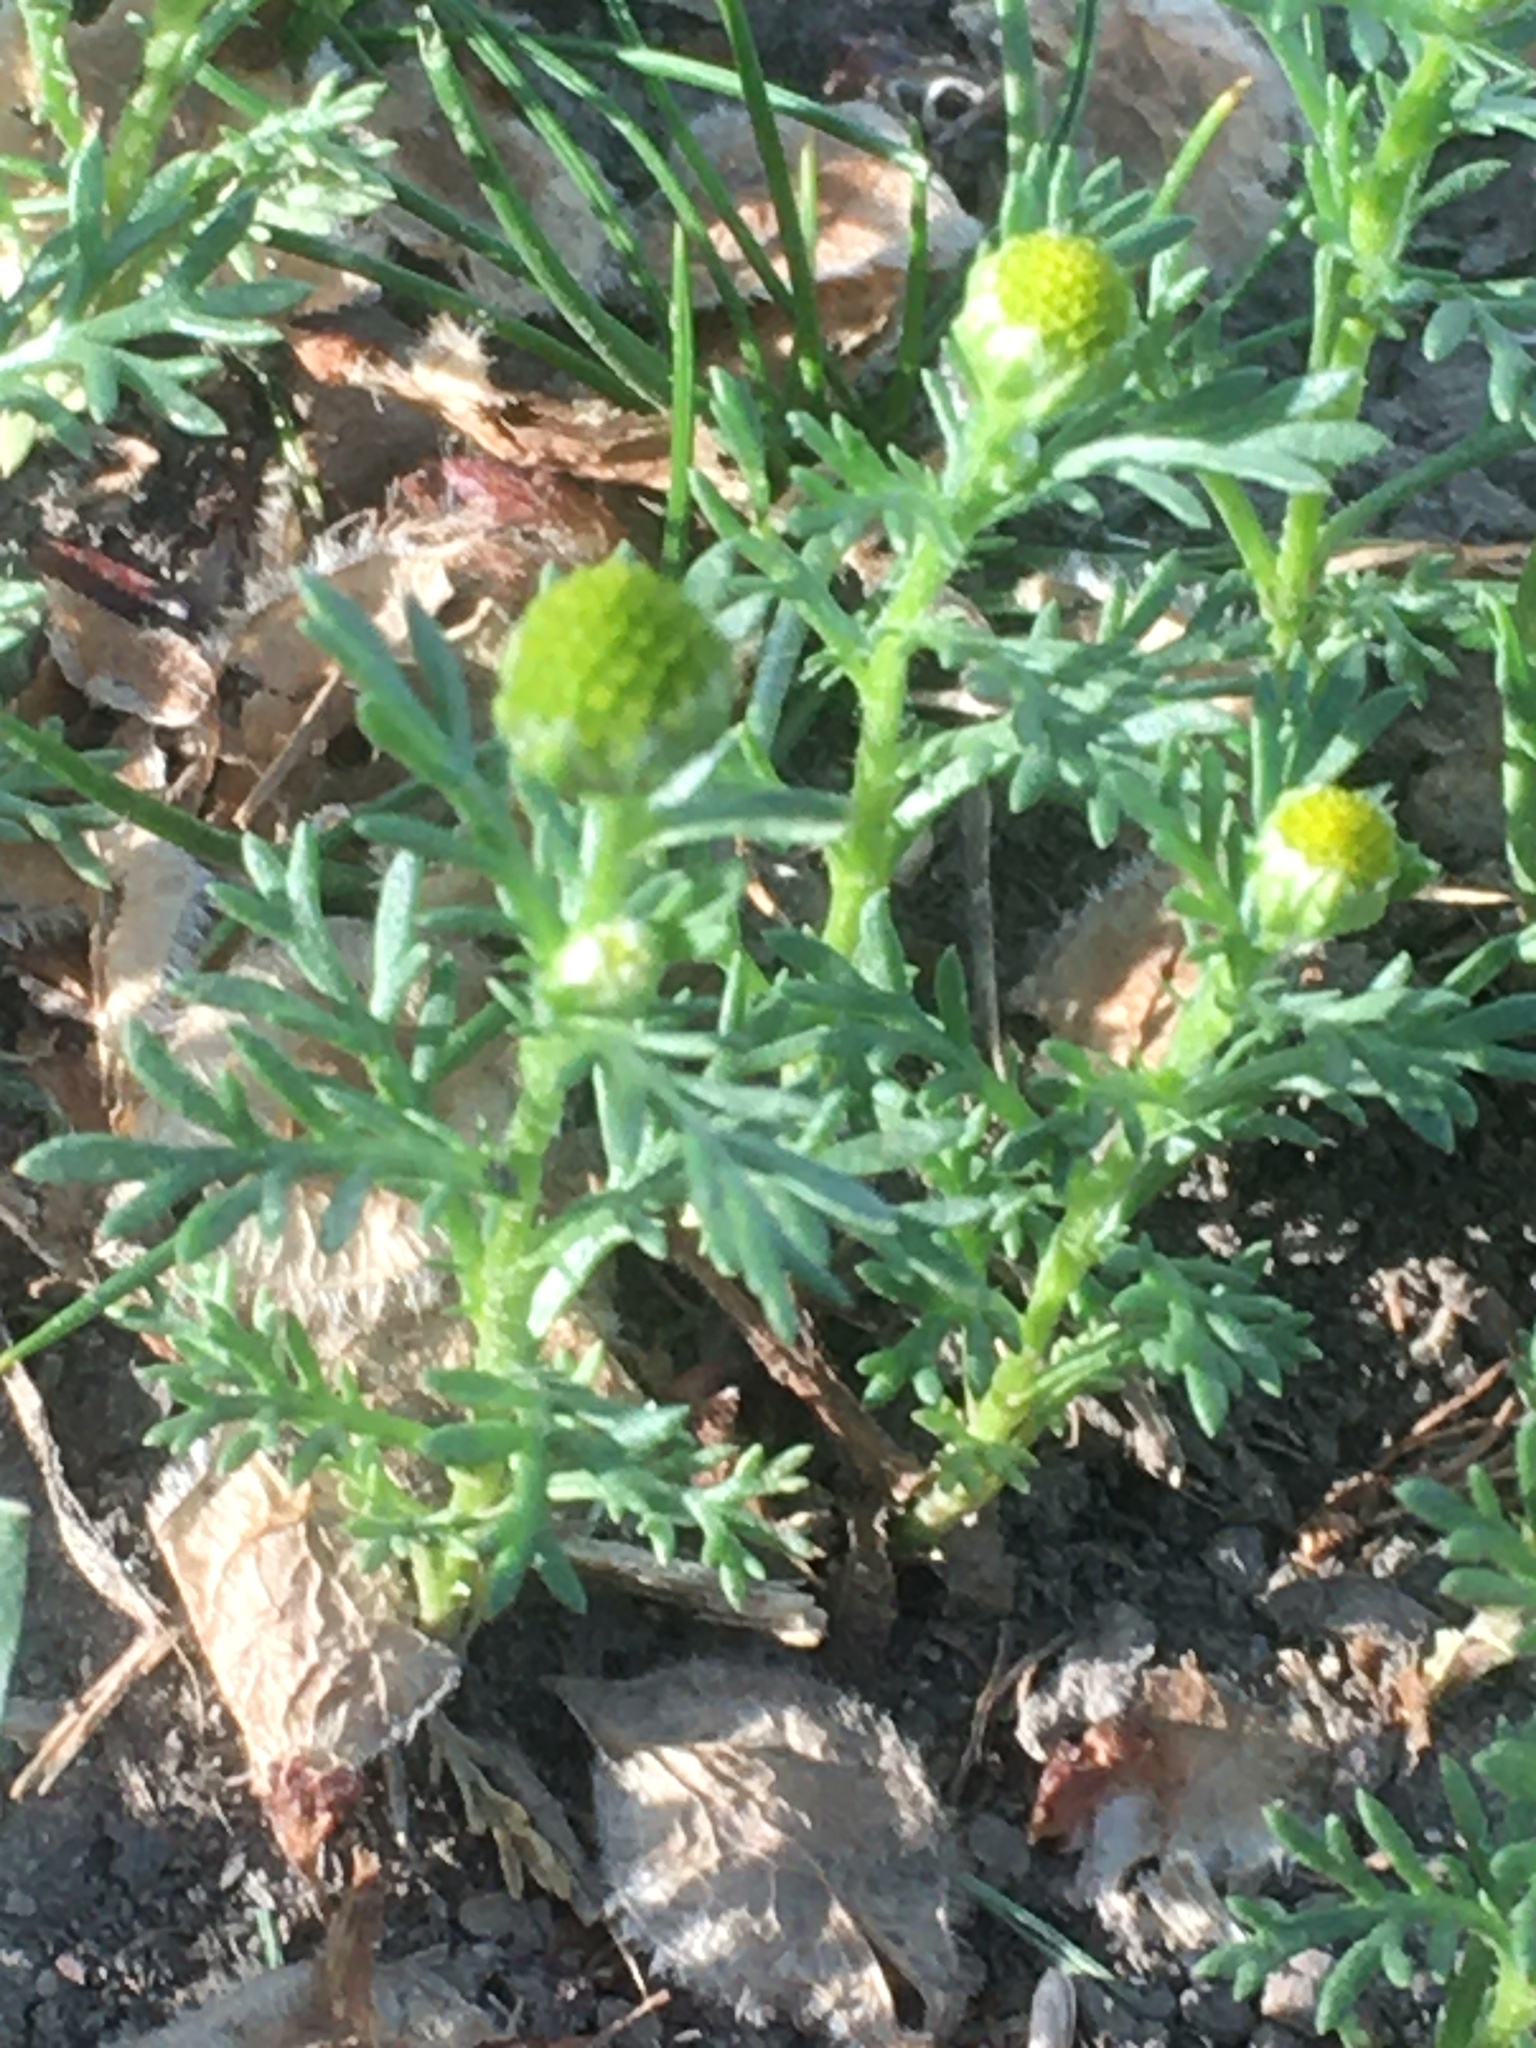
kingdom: Plantae
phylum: Tracheophyta
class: Magnoliopsida
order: Asterales
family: Asteraceae
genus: Matricaria
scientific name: Matricaria discoidea
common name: Disc mayweed
